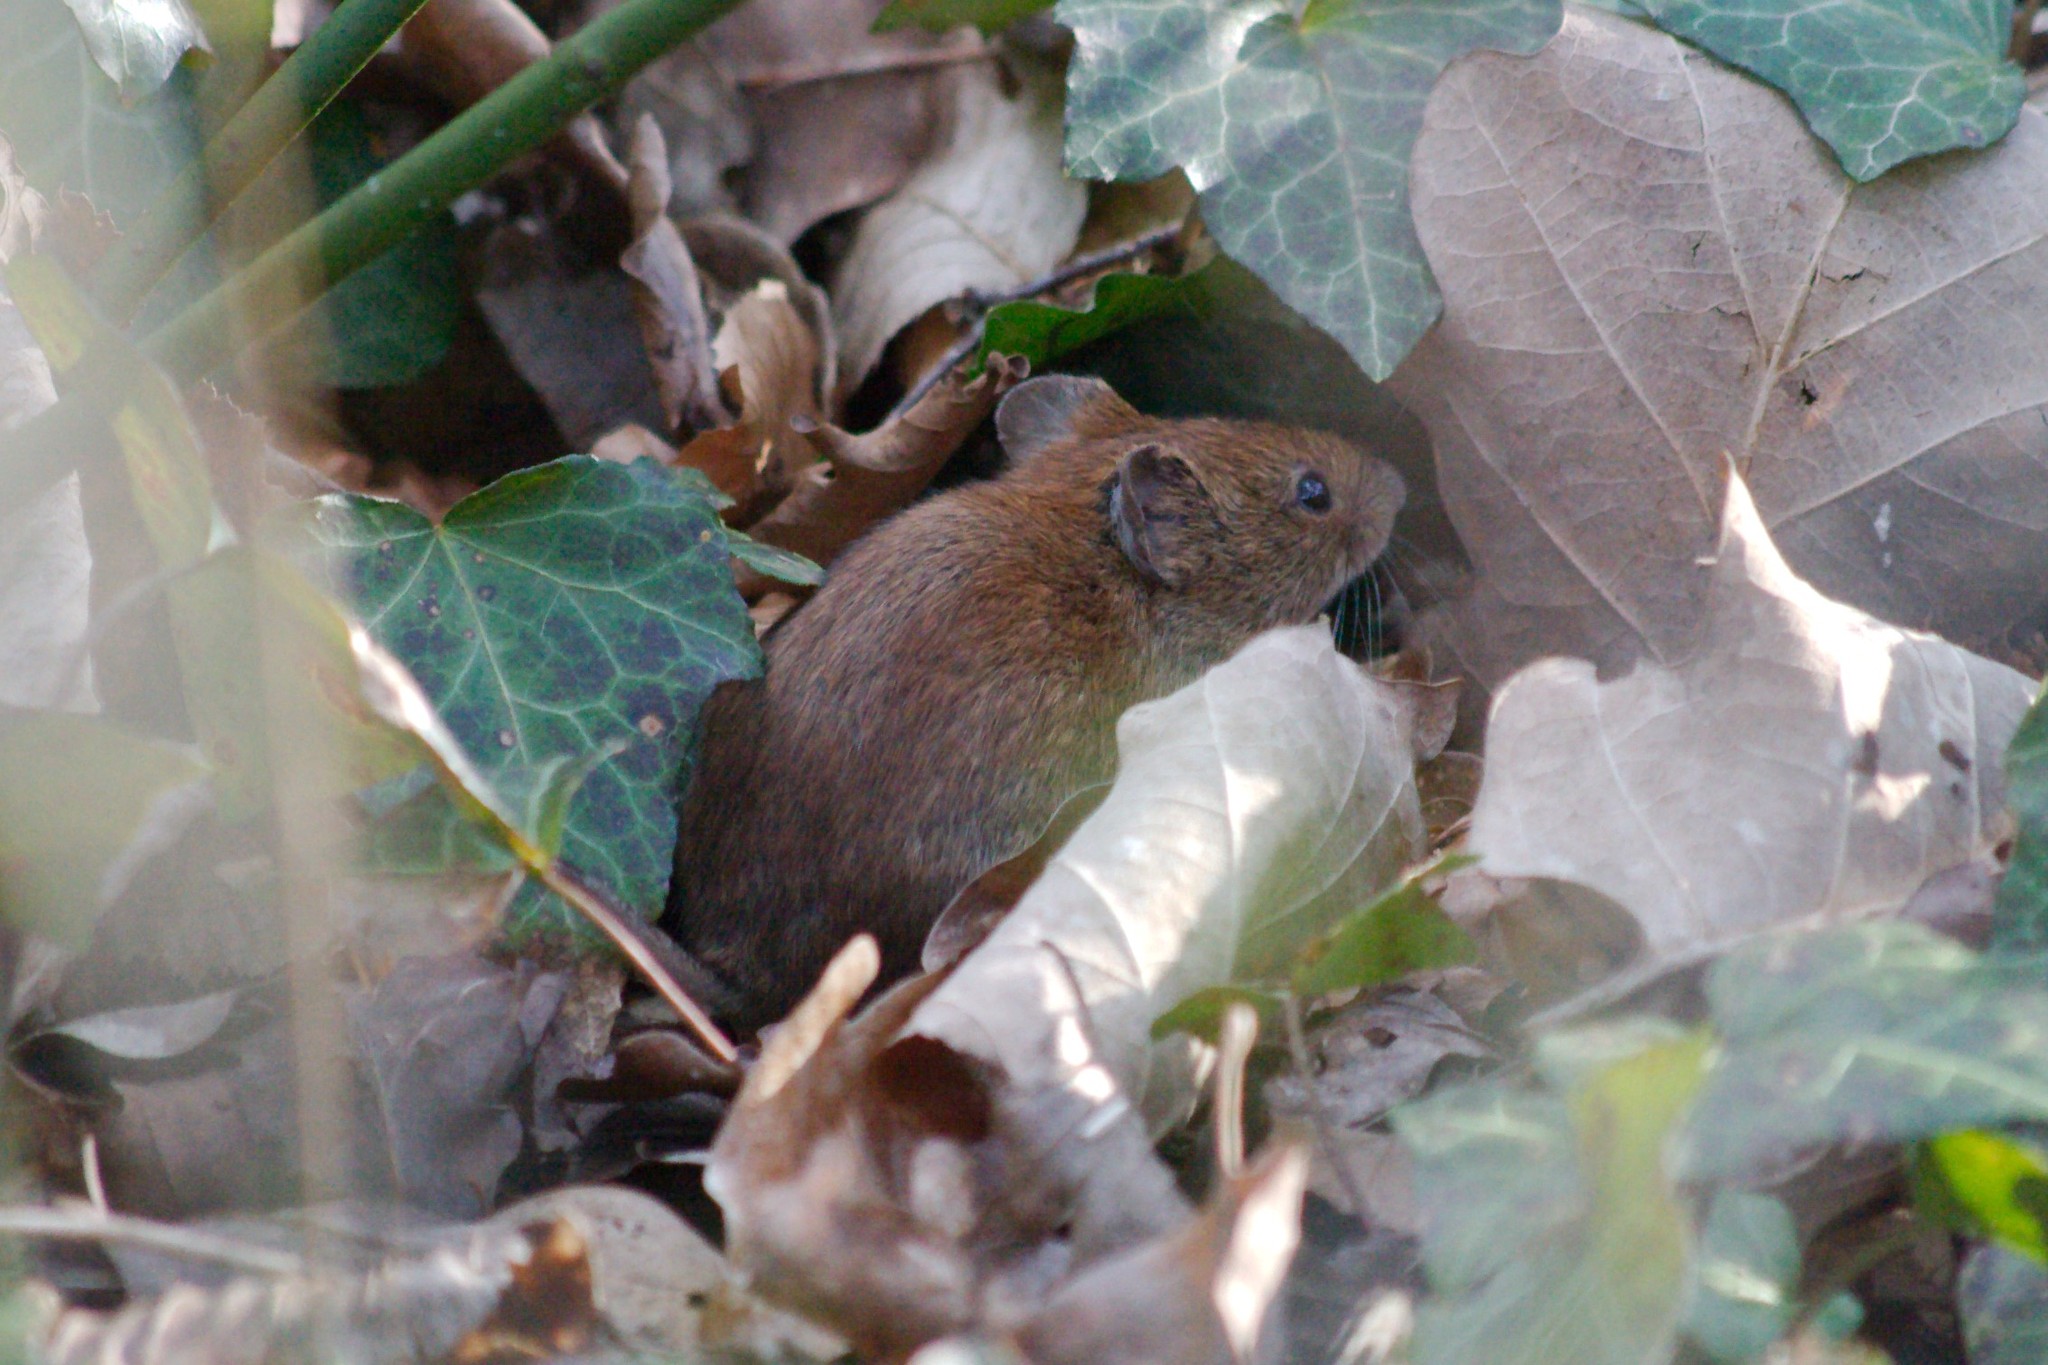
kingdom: Animalia
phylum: Chordata
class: Mammalia
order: Rodentia
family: Cricetidae
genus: Myodes
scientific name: Myodes glareolus
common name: Bank vole
